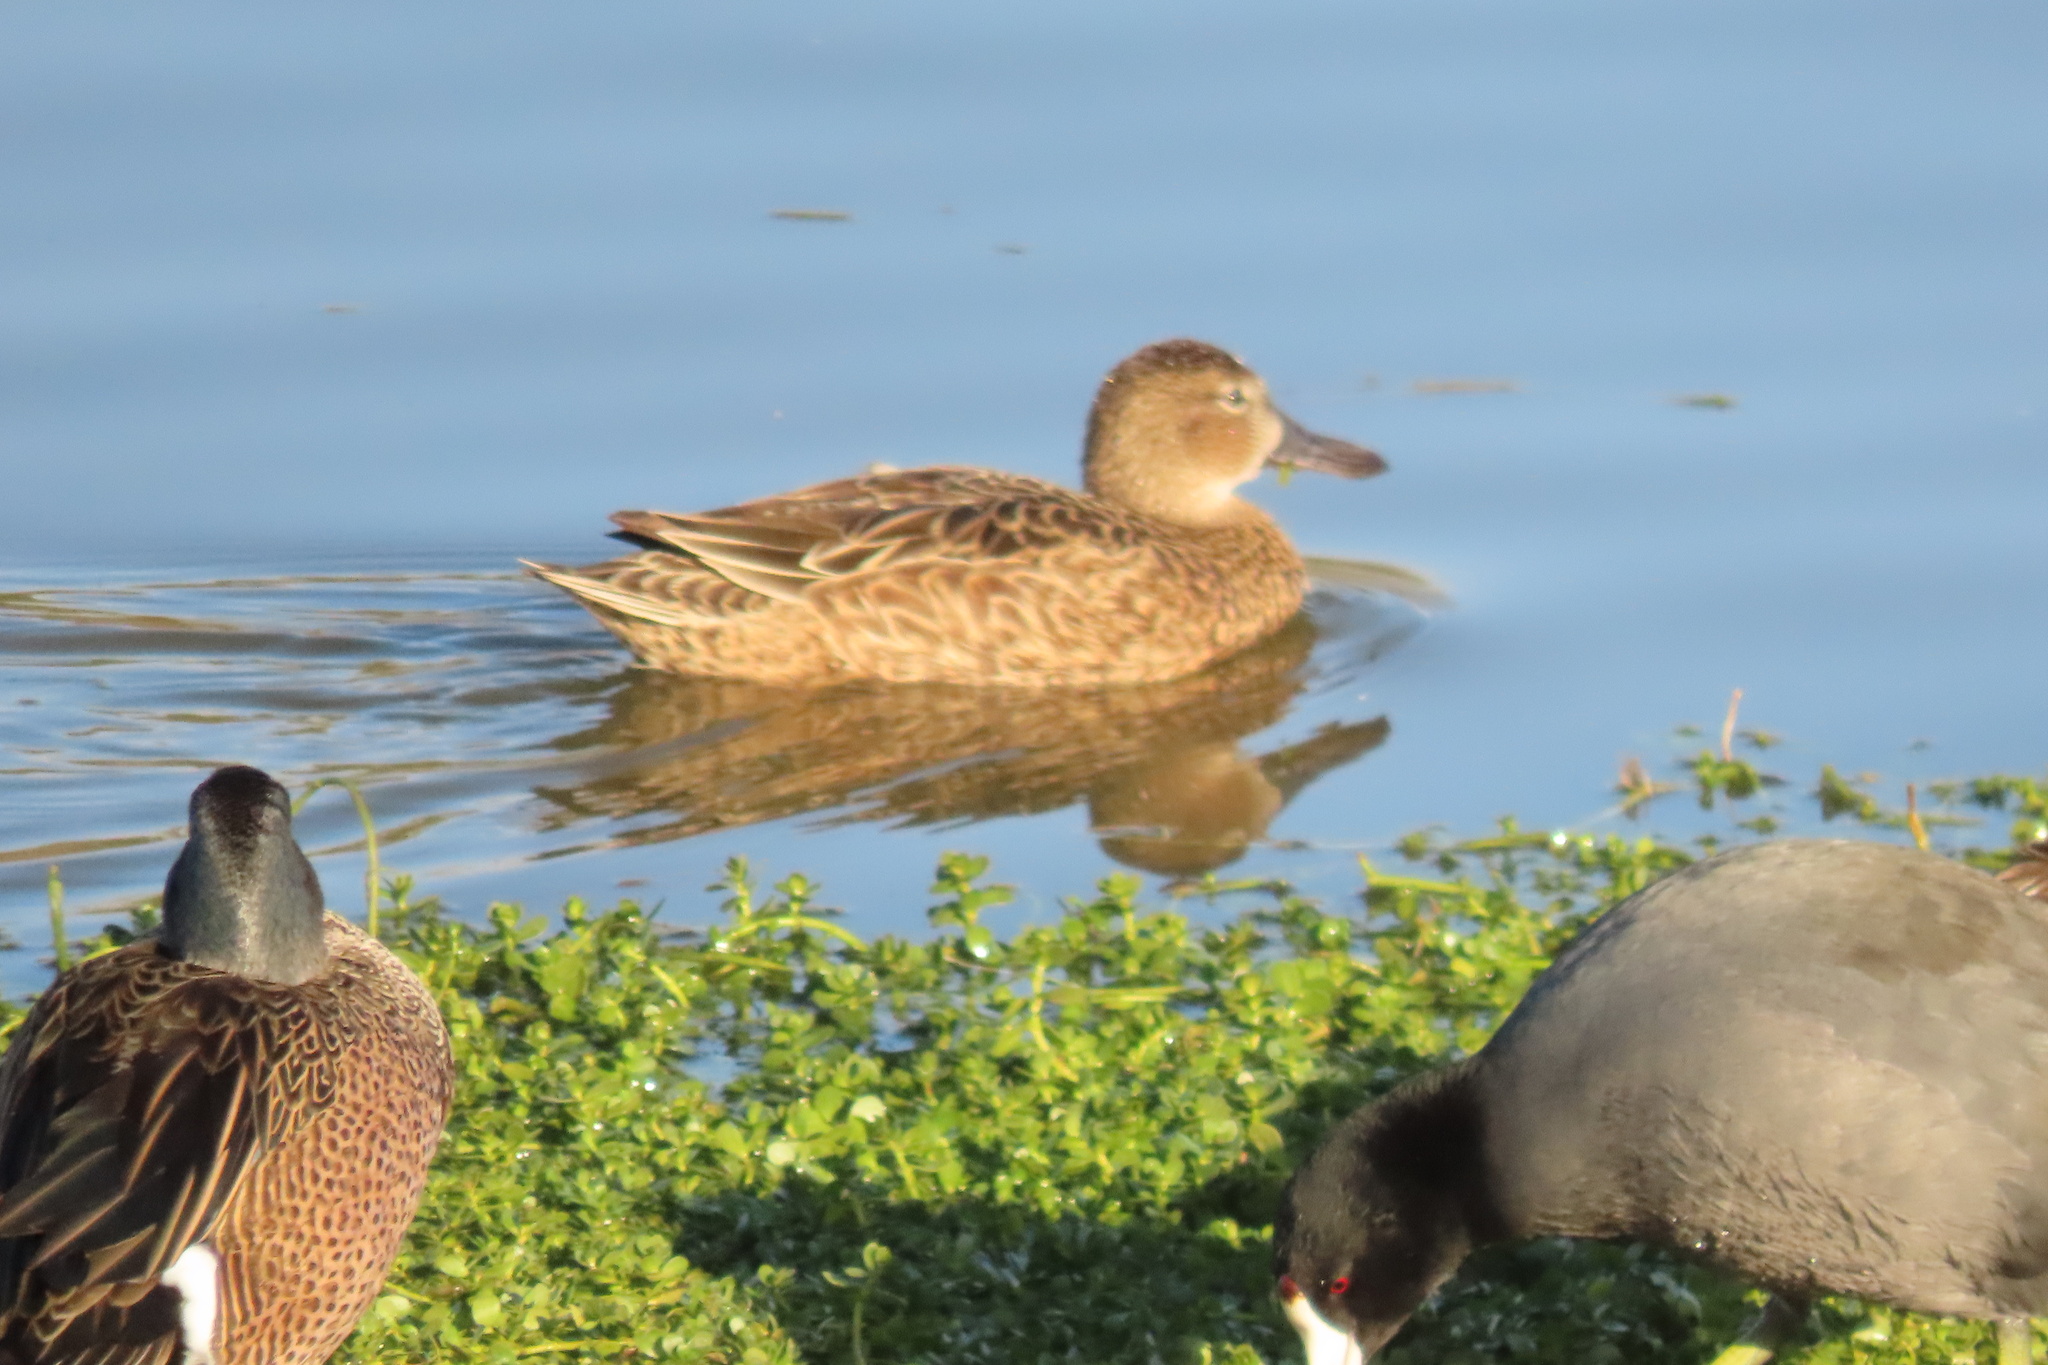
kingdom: Animalia
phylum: Chordata
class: Aves
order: Anseriformes
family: Anatidae
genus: Spatula
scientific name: Spatula cyanoptera
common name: Cinnamon teal
